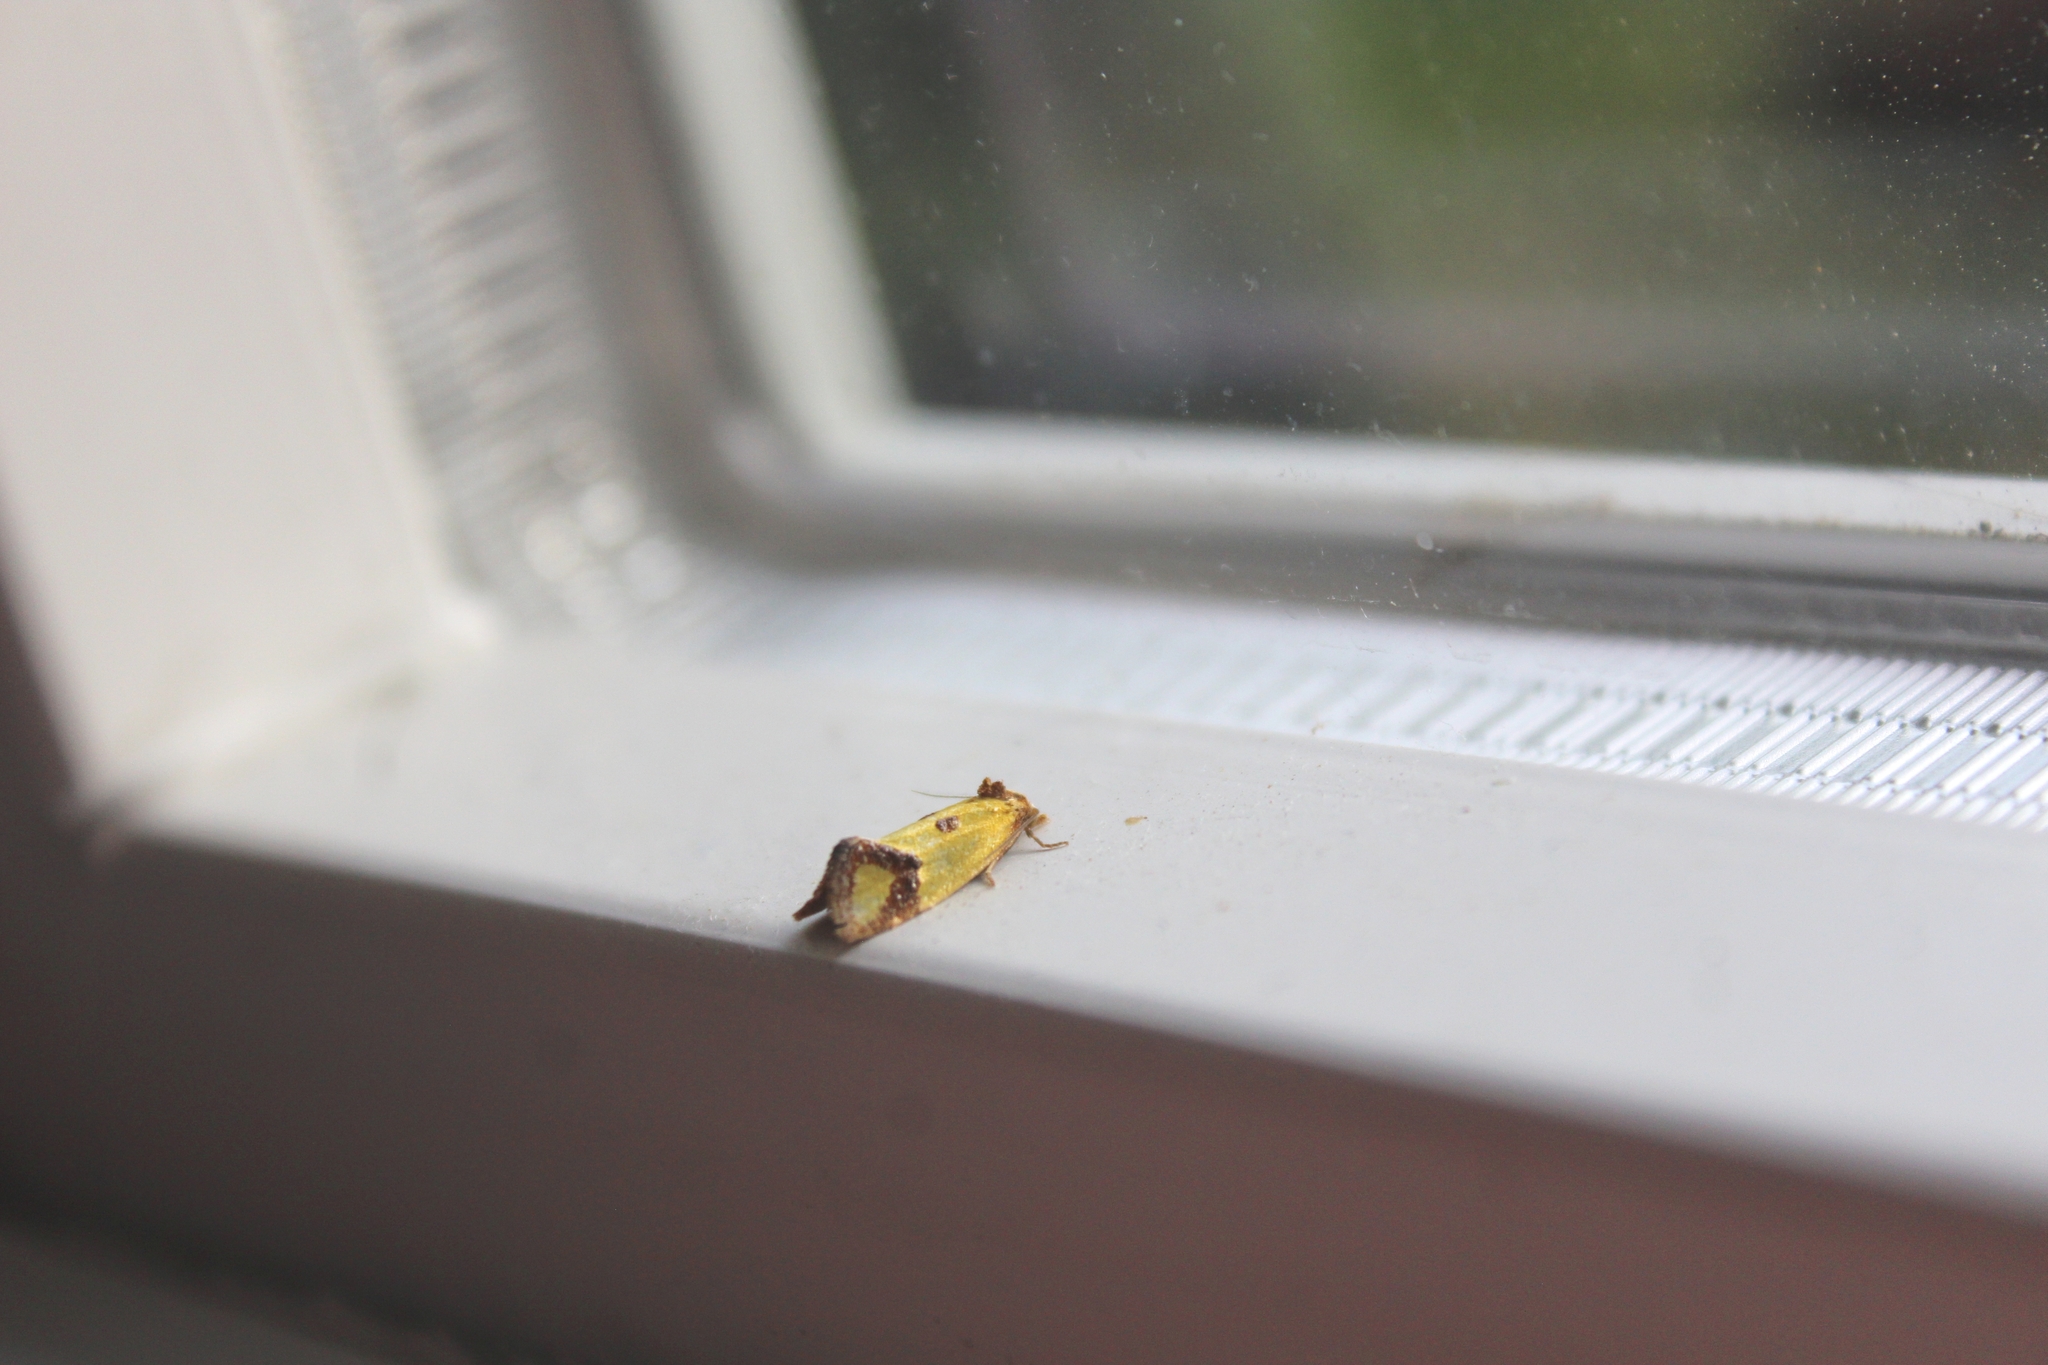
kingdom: Animalia
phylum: Arthropoda
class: Insecta
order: Lepidoptera
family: Tortricidae
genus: Agapeta
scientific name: Agapeta zoegana
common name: Sulfur knapweed root moth
